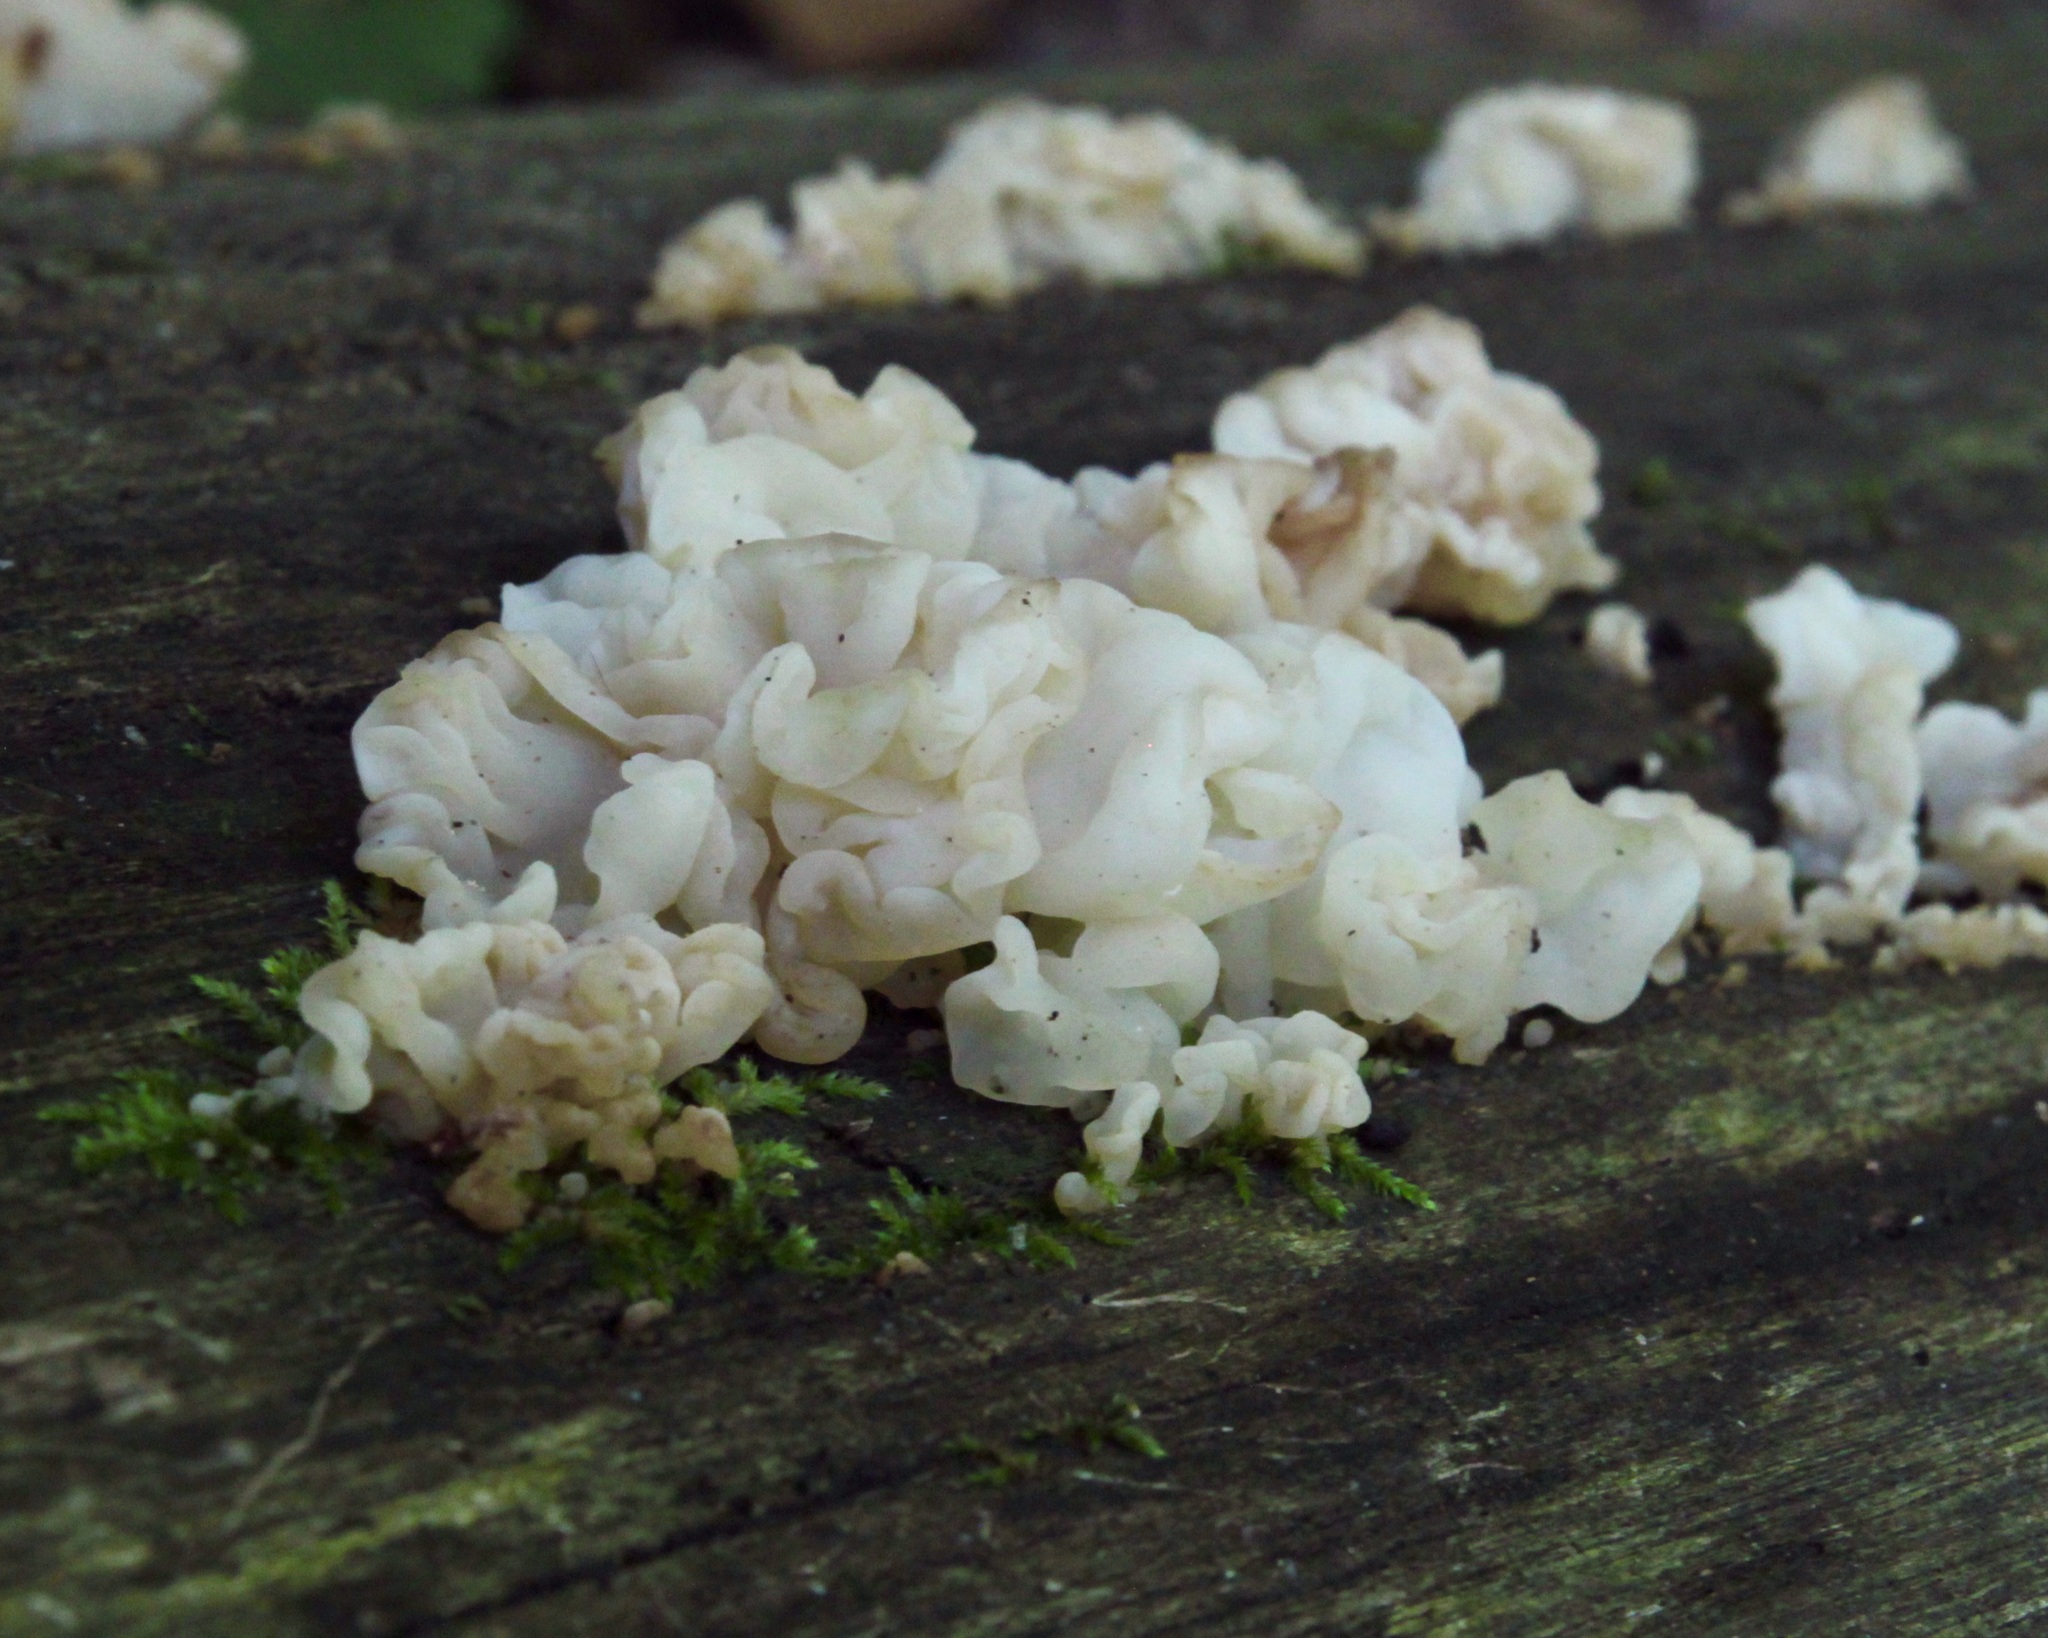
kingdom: Fungi
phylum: Basidiomycota
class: Agaricomycetes
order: Auriculariales
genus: Ductifera
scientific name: Ductifera pululahuana
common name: White jelly fungus
